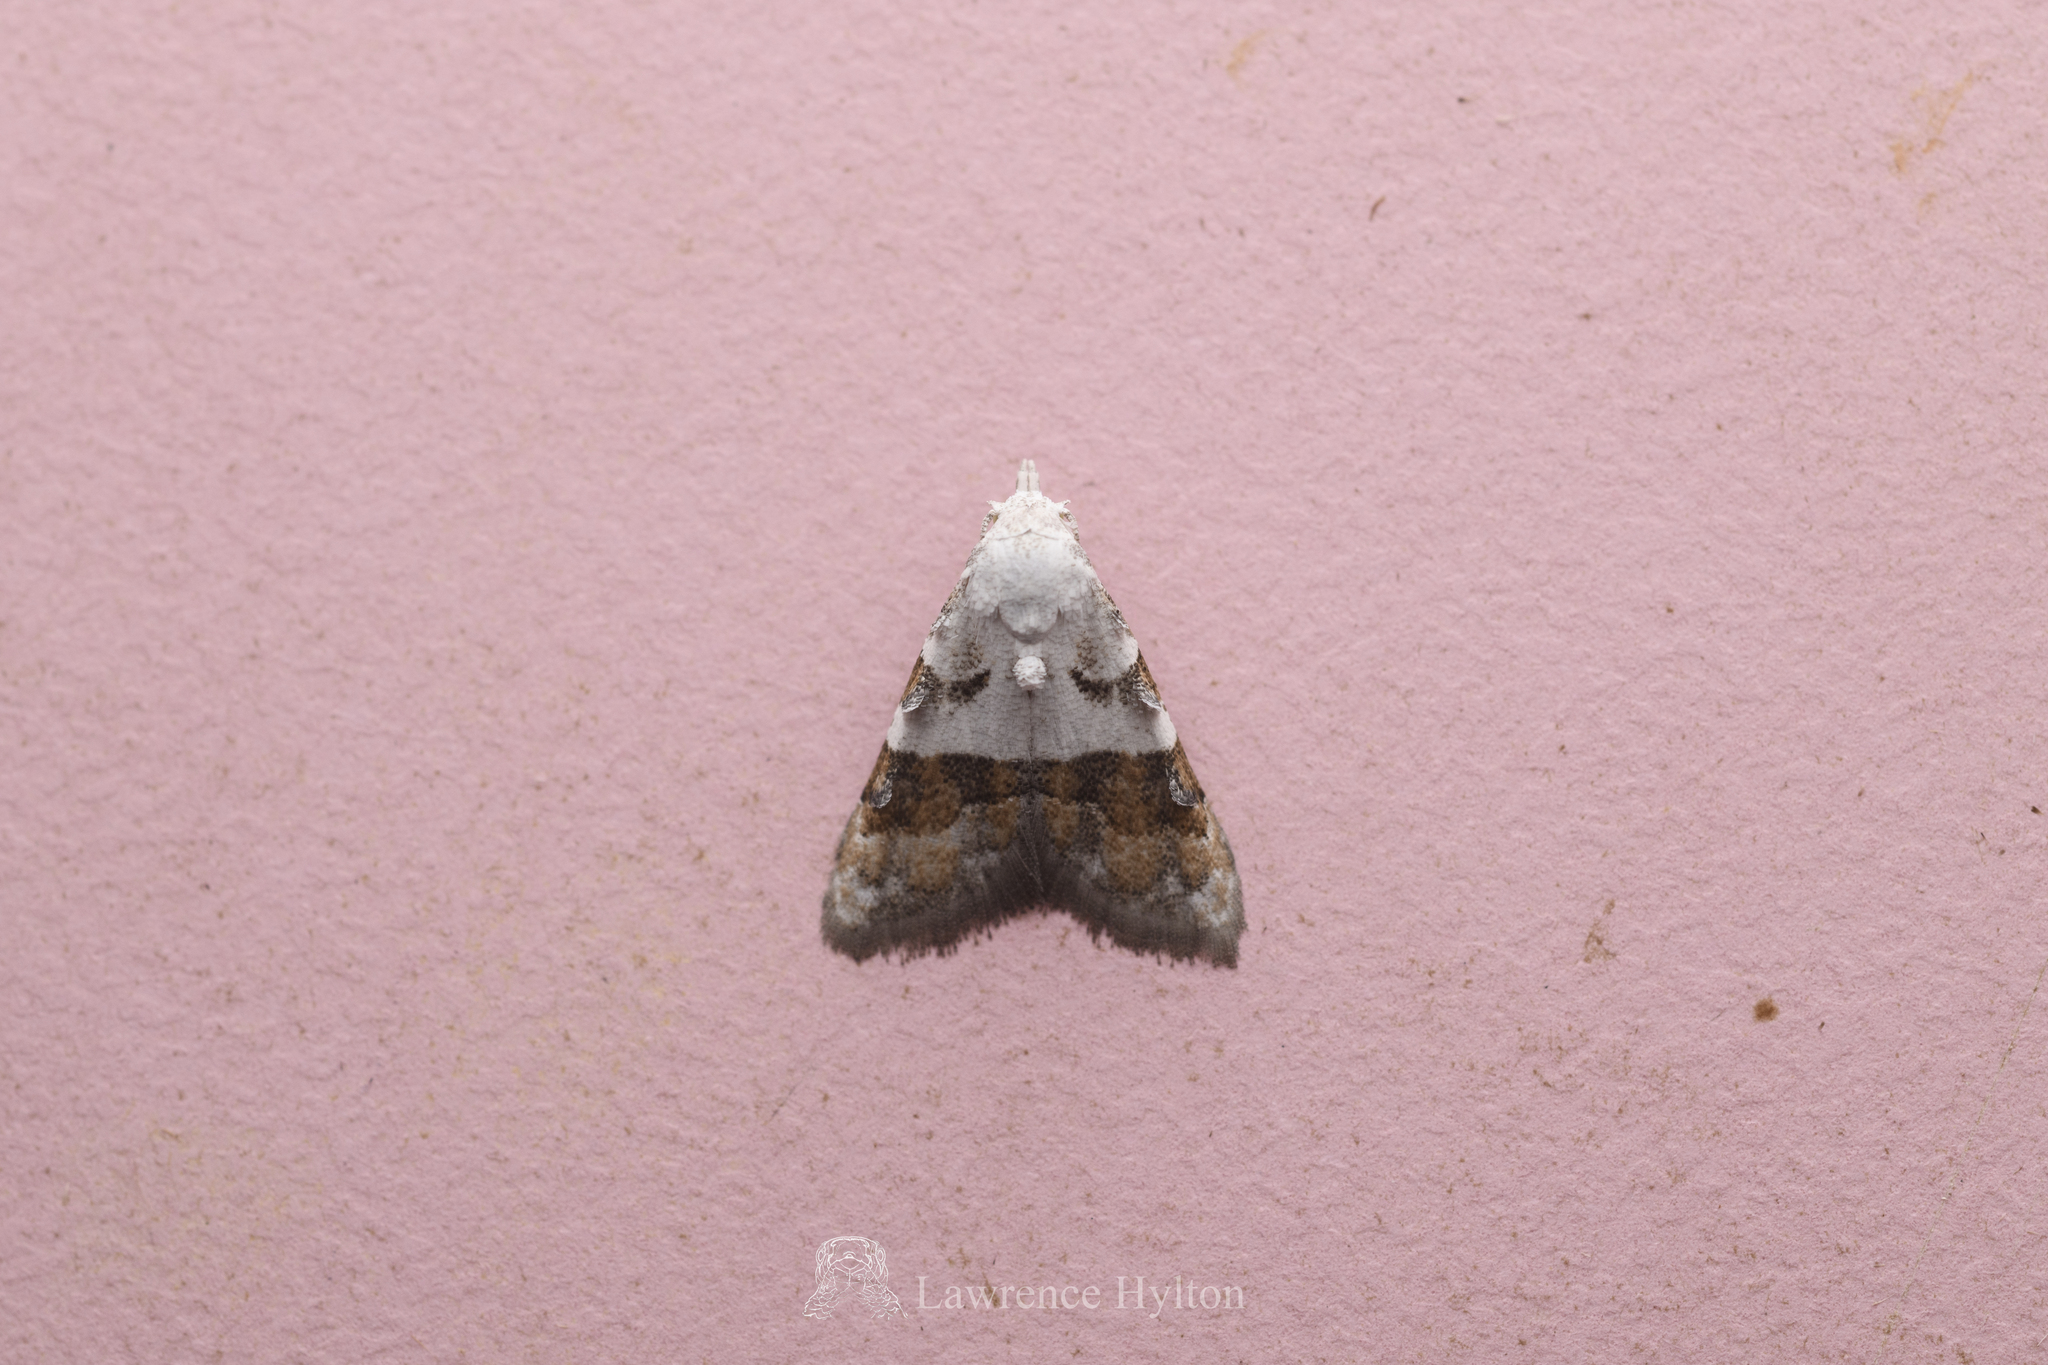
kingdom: Animalia
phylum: Arthropoda
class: Insecta
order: Lepidoptera
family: Nolidae
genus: Nola
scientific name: Nola lucidalis
